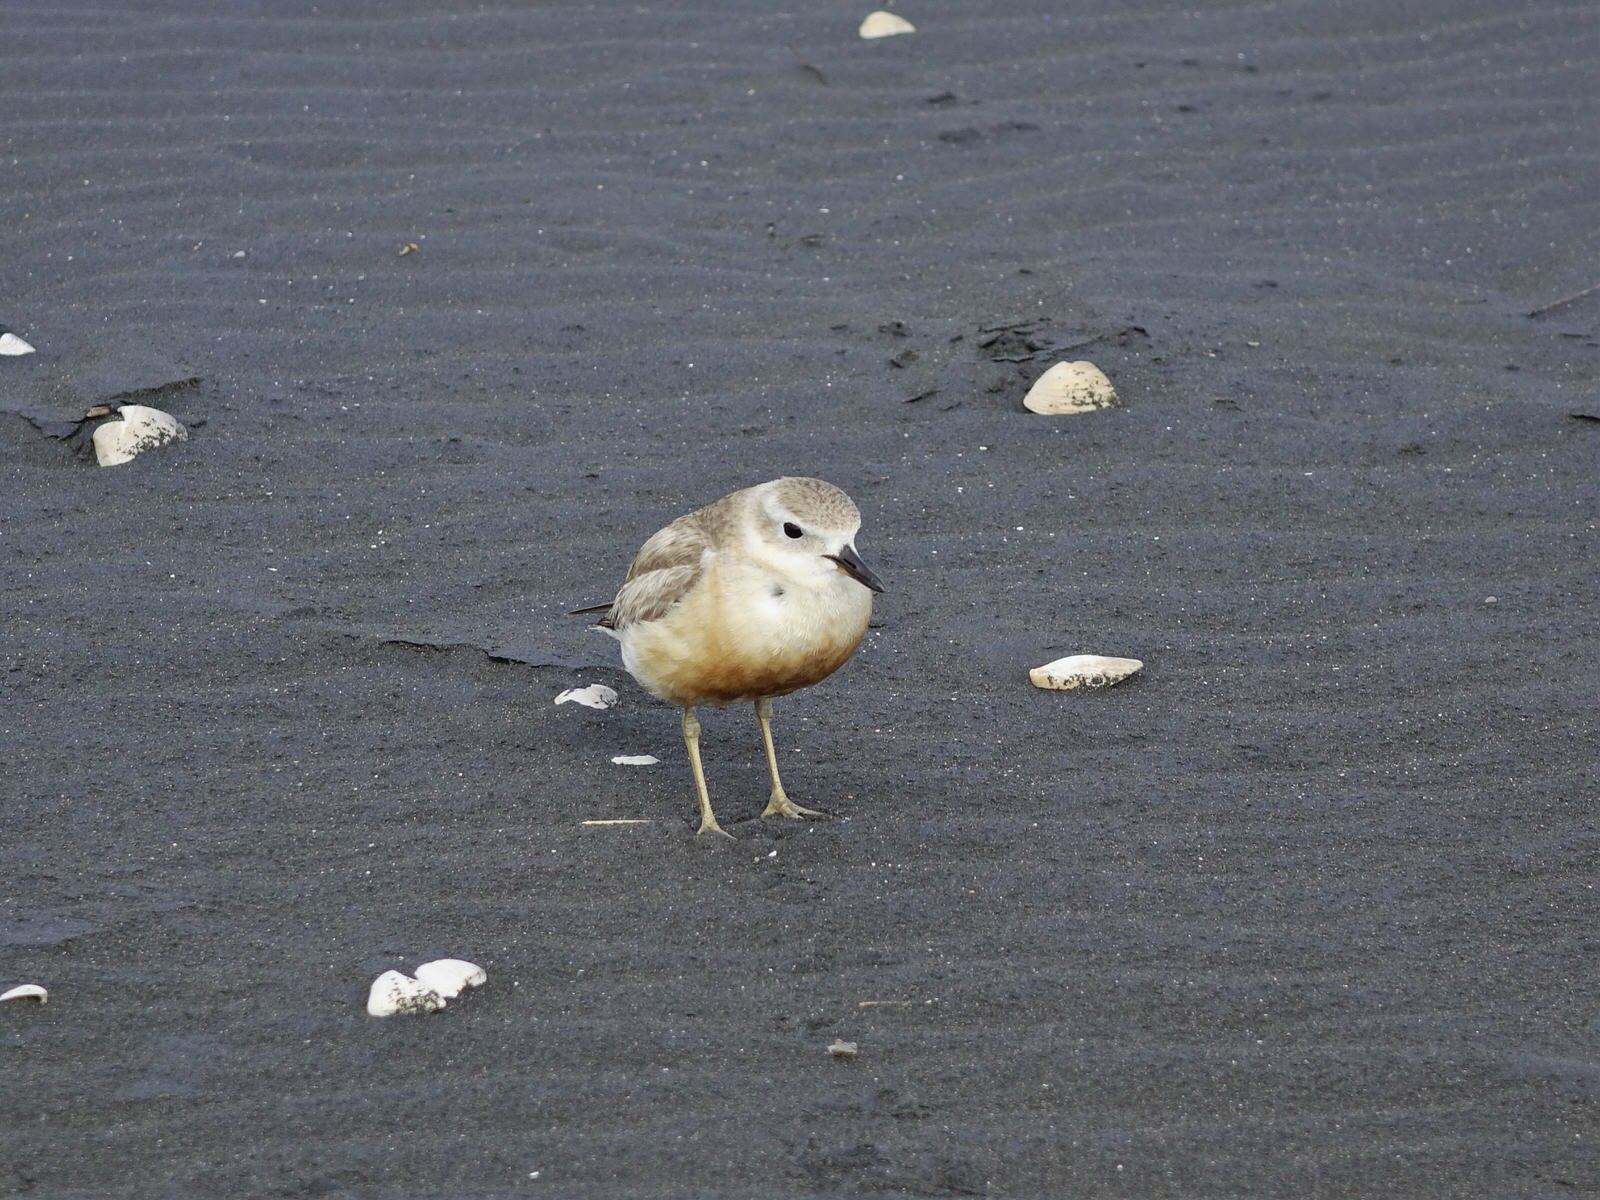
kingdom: Animalia
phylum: Chordata
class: Aves
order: Charadriiformes
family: Charadriidae
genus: Anarhynchus
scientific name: Anarhynchus
